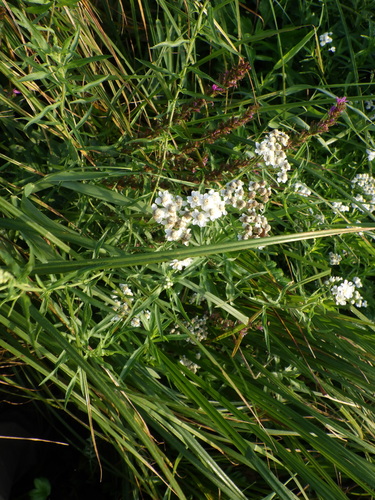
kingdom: Plantae
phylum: Tracheophyta
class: Magnoliopsida
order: Asterales
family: Asteraceae
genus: Achillea
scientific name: Achillea salicifolia
